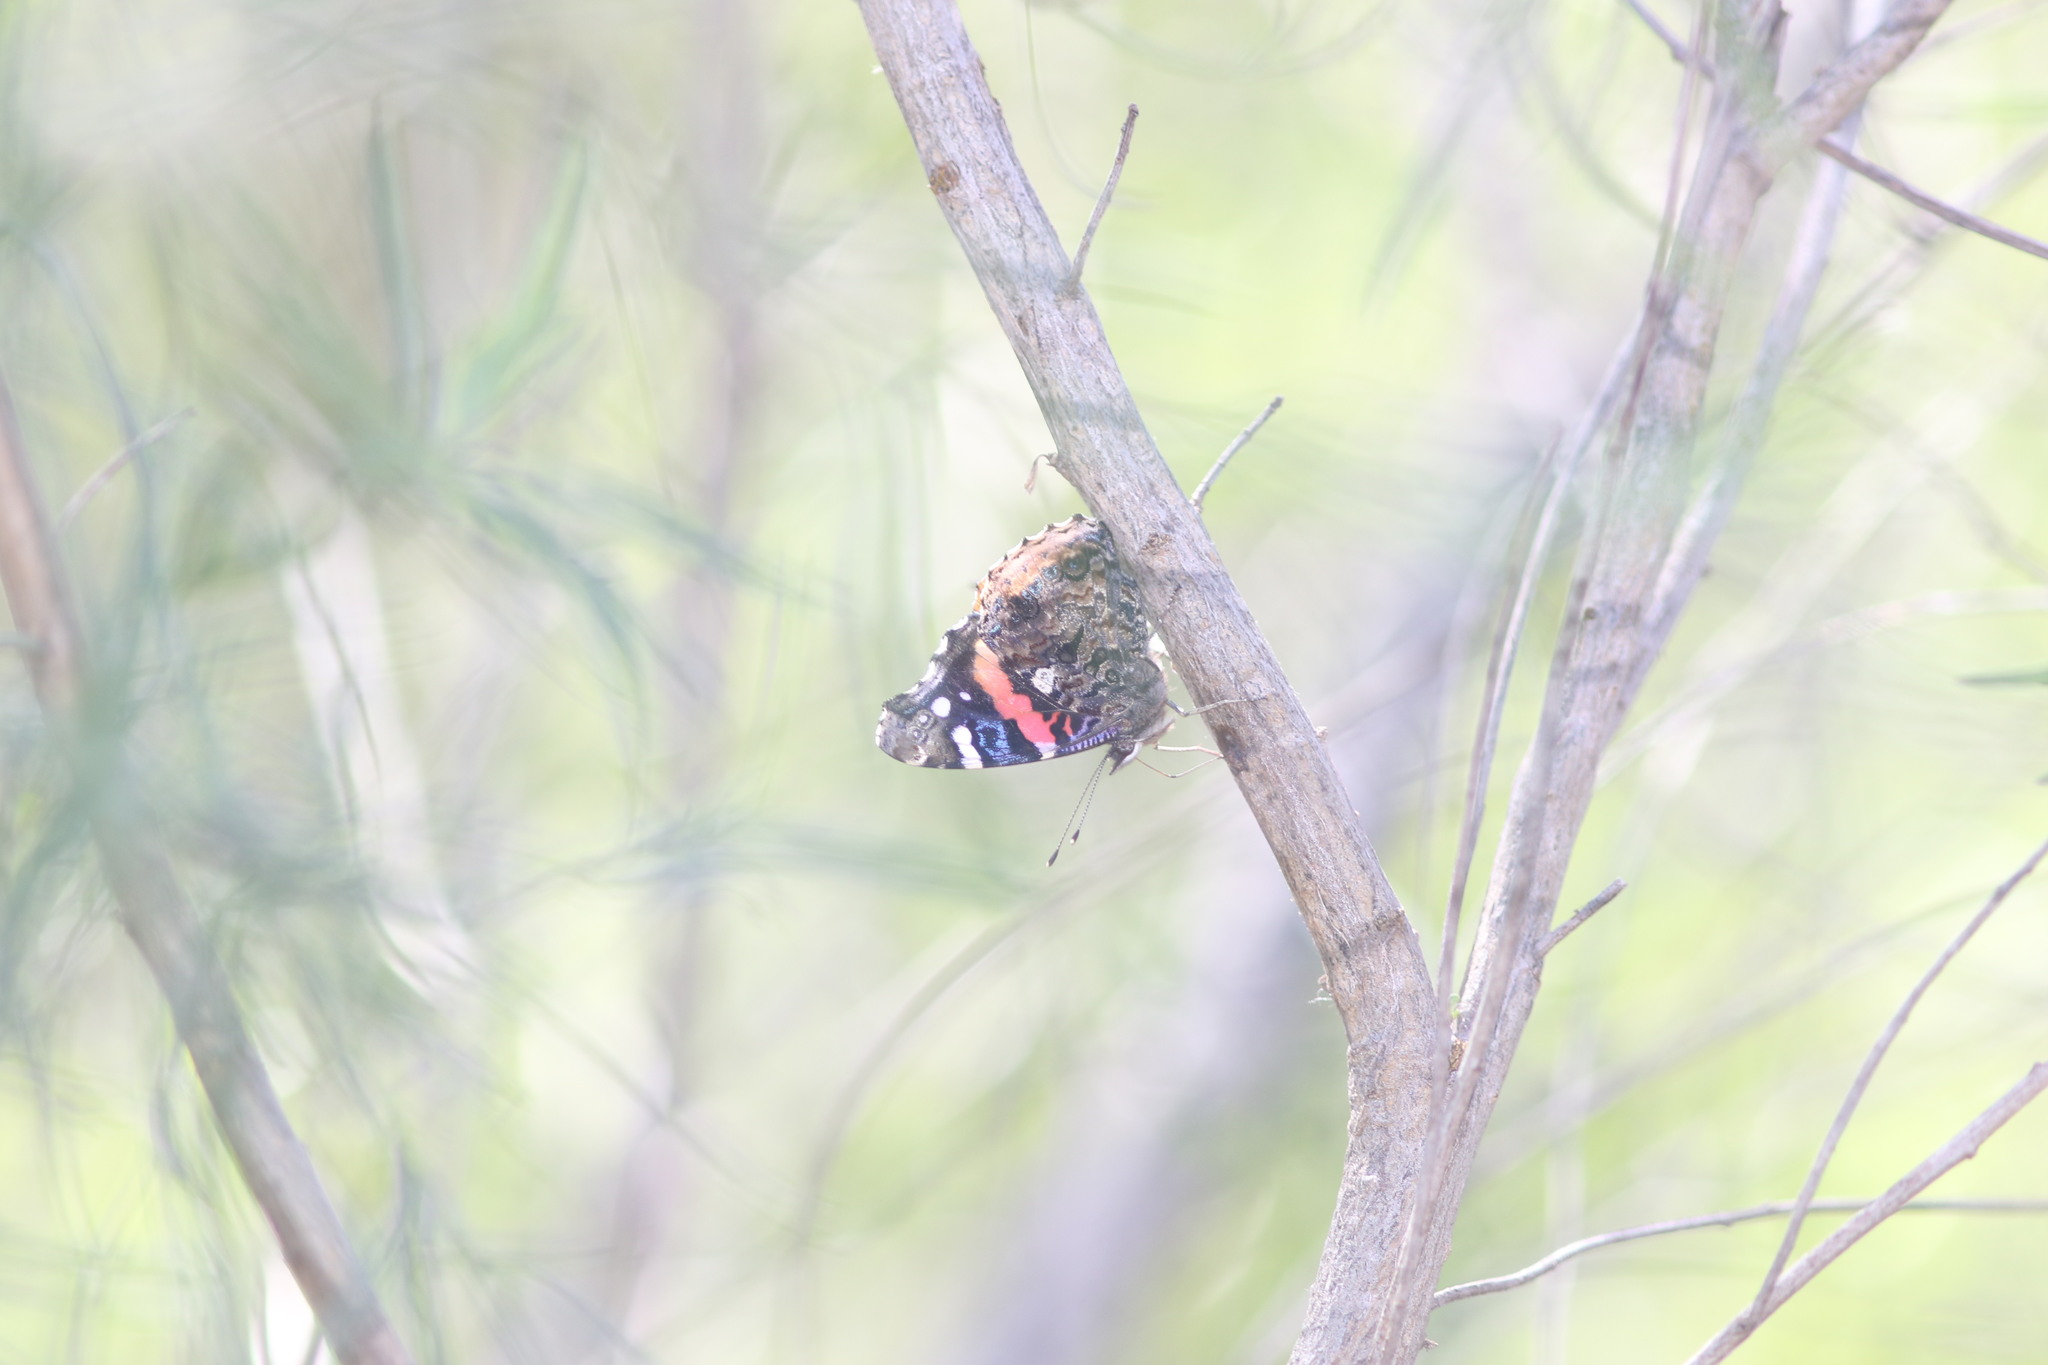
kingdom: Animalia
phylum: Arthropoda
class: Insecta
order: Lepidoptera
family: Nymphalidae
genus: Vanessa
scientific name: Vanessa atalanta
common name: Red admiral
